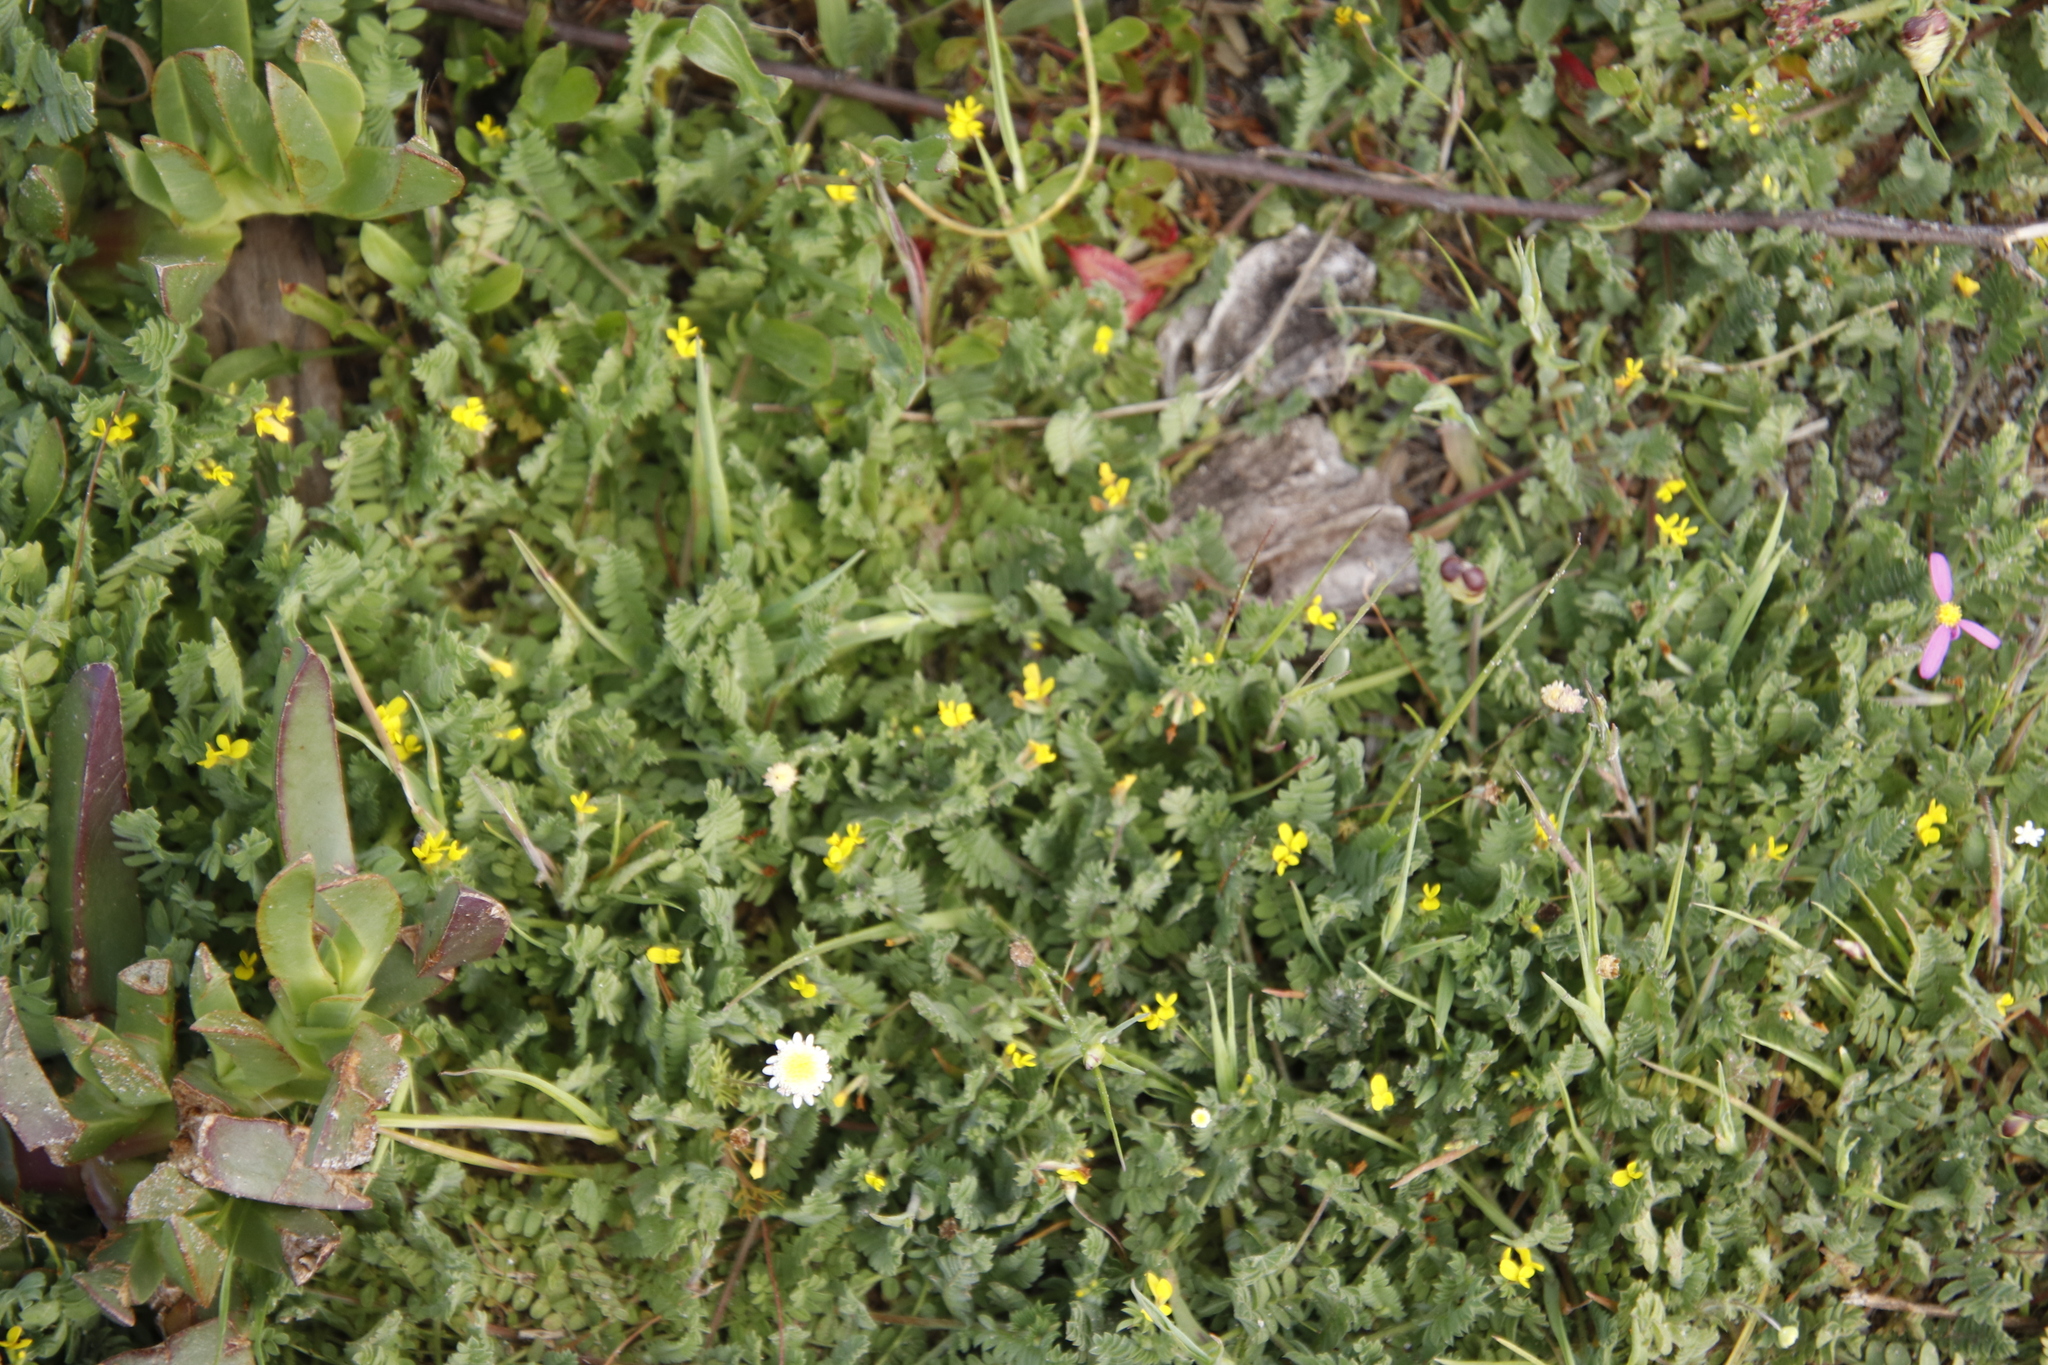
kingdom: Plantae
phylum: Tracheophyta
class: Magnoliopsida
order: Asterales
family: Asteraceae
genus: Cotula
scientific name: Cotula turbinata
